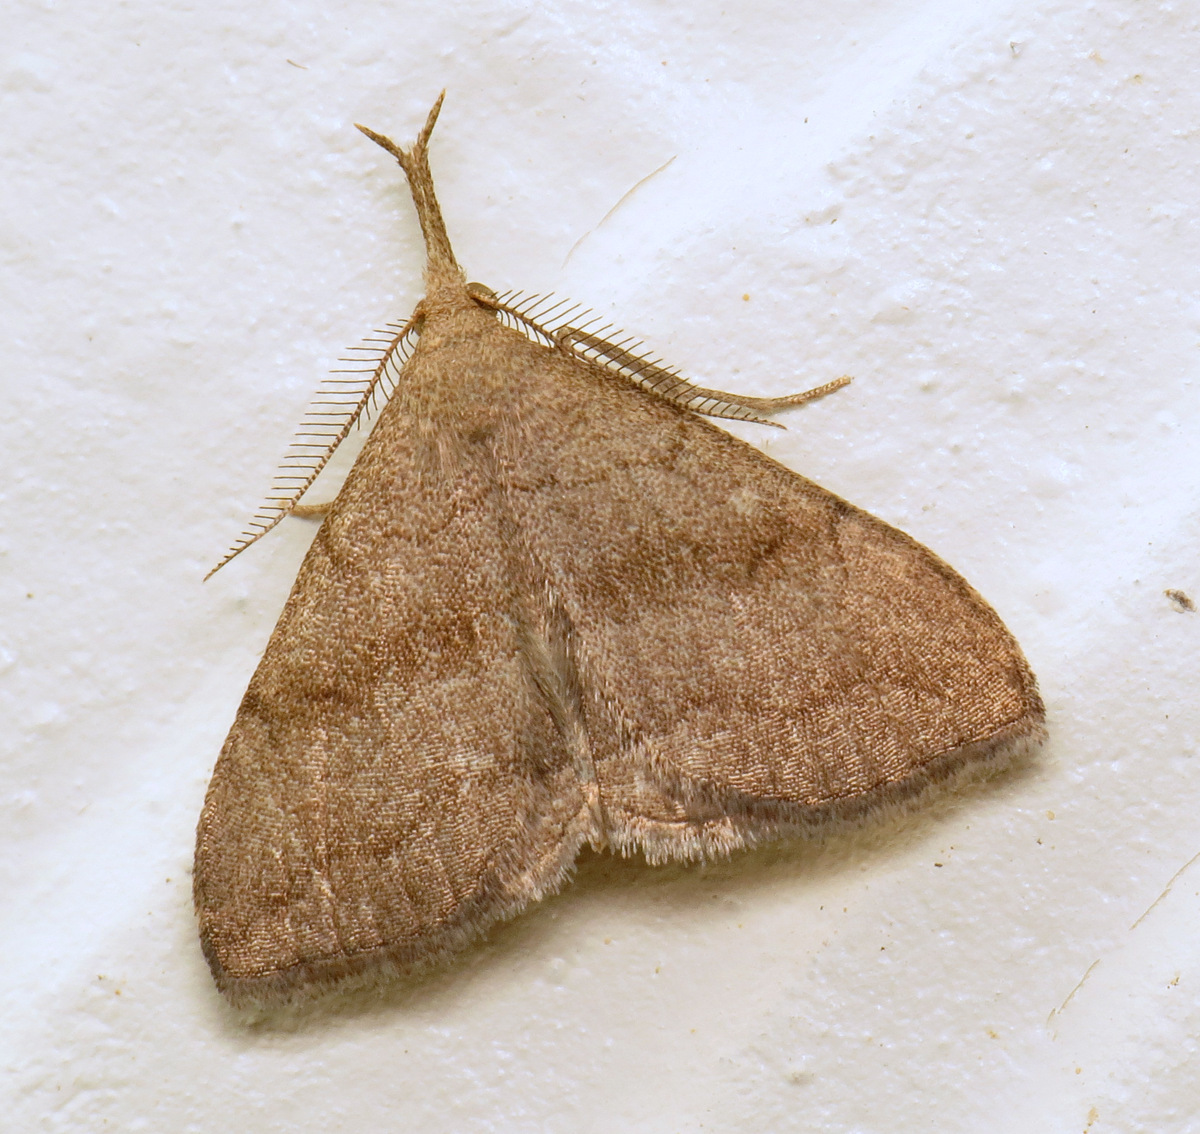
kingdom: Animalia
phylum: Arthropoda
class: Insecta
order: Lepidoptera
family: Erebidae
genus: Phalaenostola
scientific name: Phalaenostola metonalis
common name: Pale phalaenostola moth
